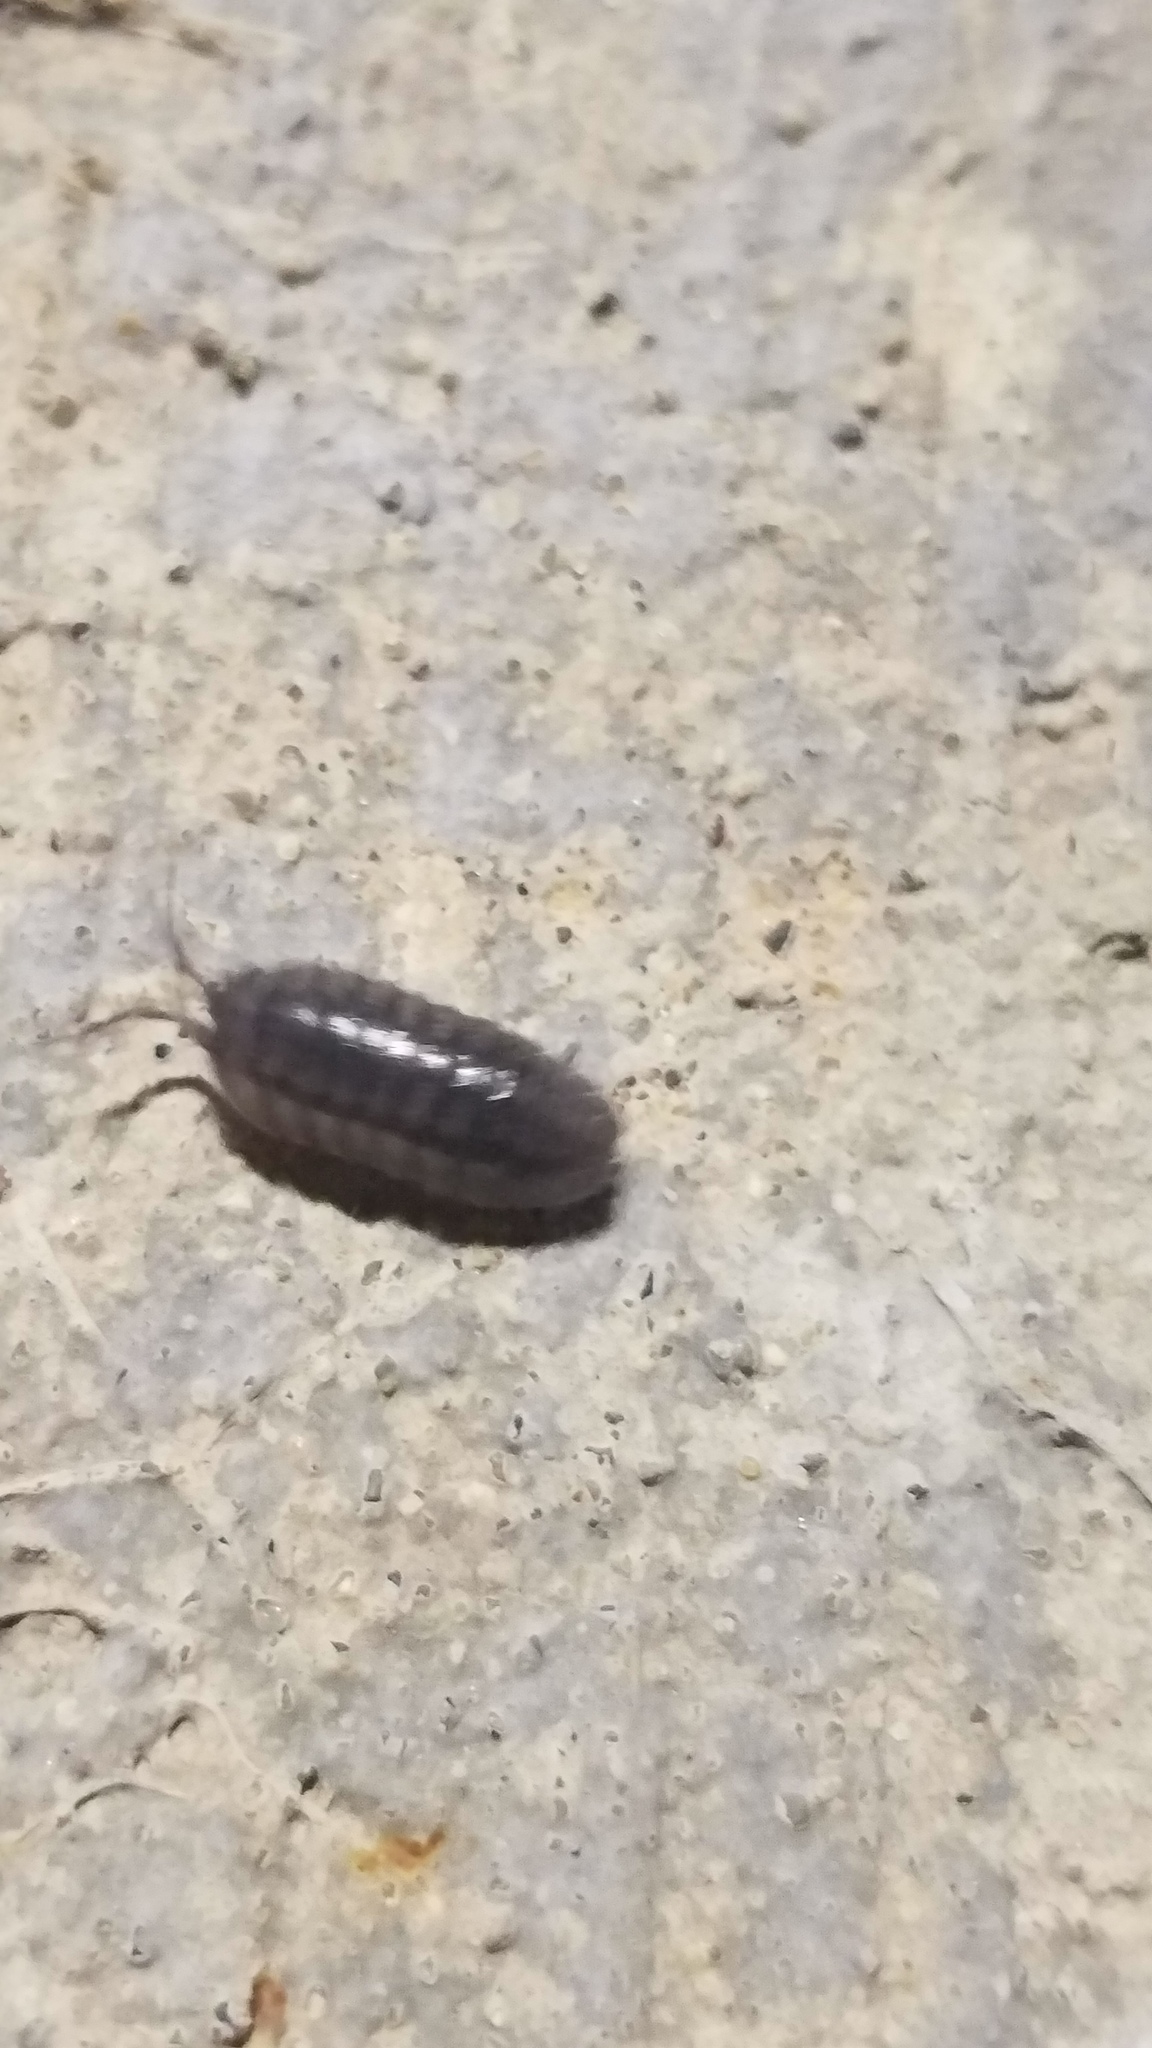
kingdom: Animalia
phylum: Arthropoda
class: Malacostraca
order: Isopoda
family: Armadillidiidae
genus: Armadillidium
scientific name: Armadillidium nasatum
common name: Isopod
